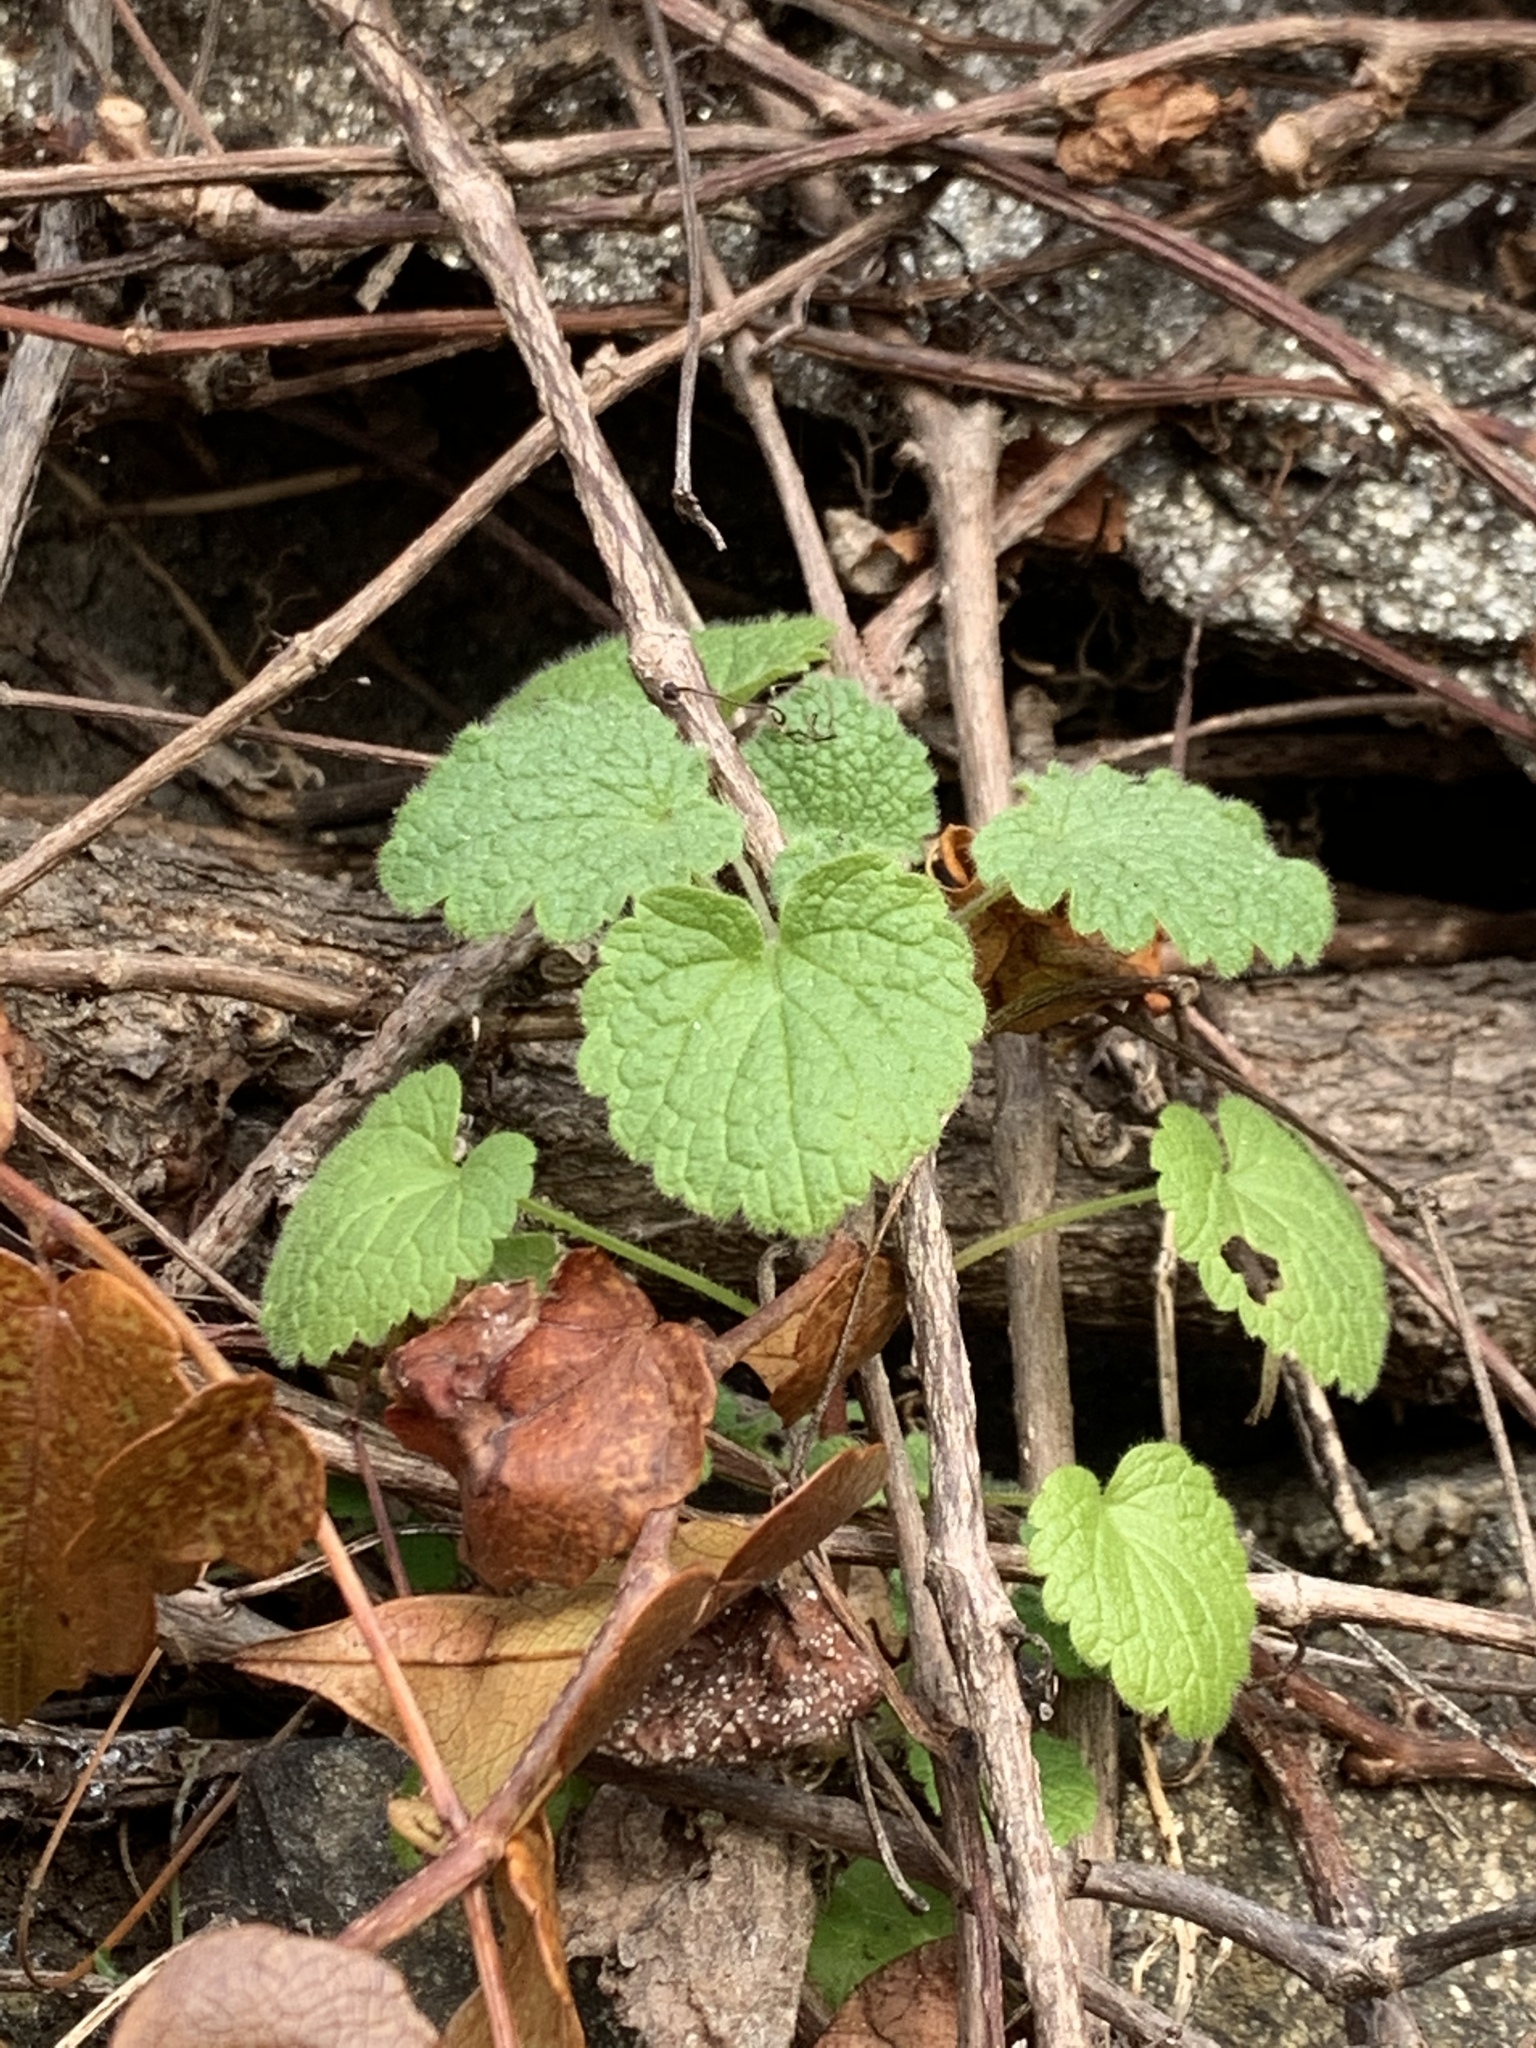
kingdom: Plantae
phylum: Tracheophyta
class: Magnoliopsida
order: Lamiales
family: Lamiaceae
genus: Lamium
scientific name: Lamium purpureum
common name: Red dead-nettle
